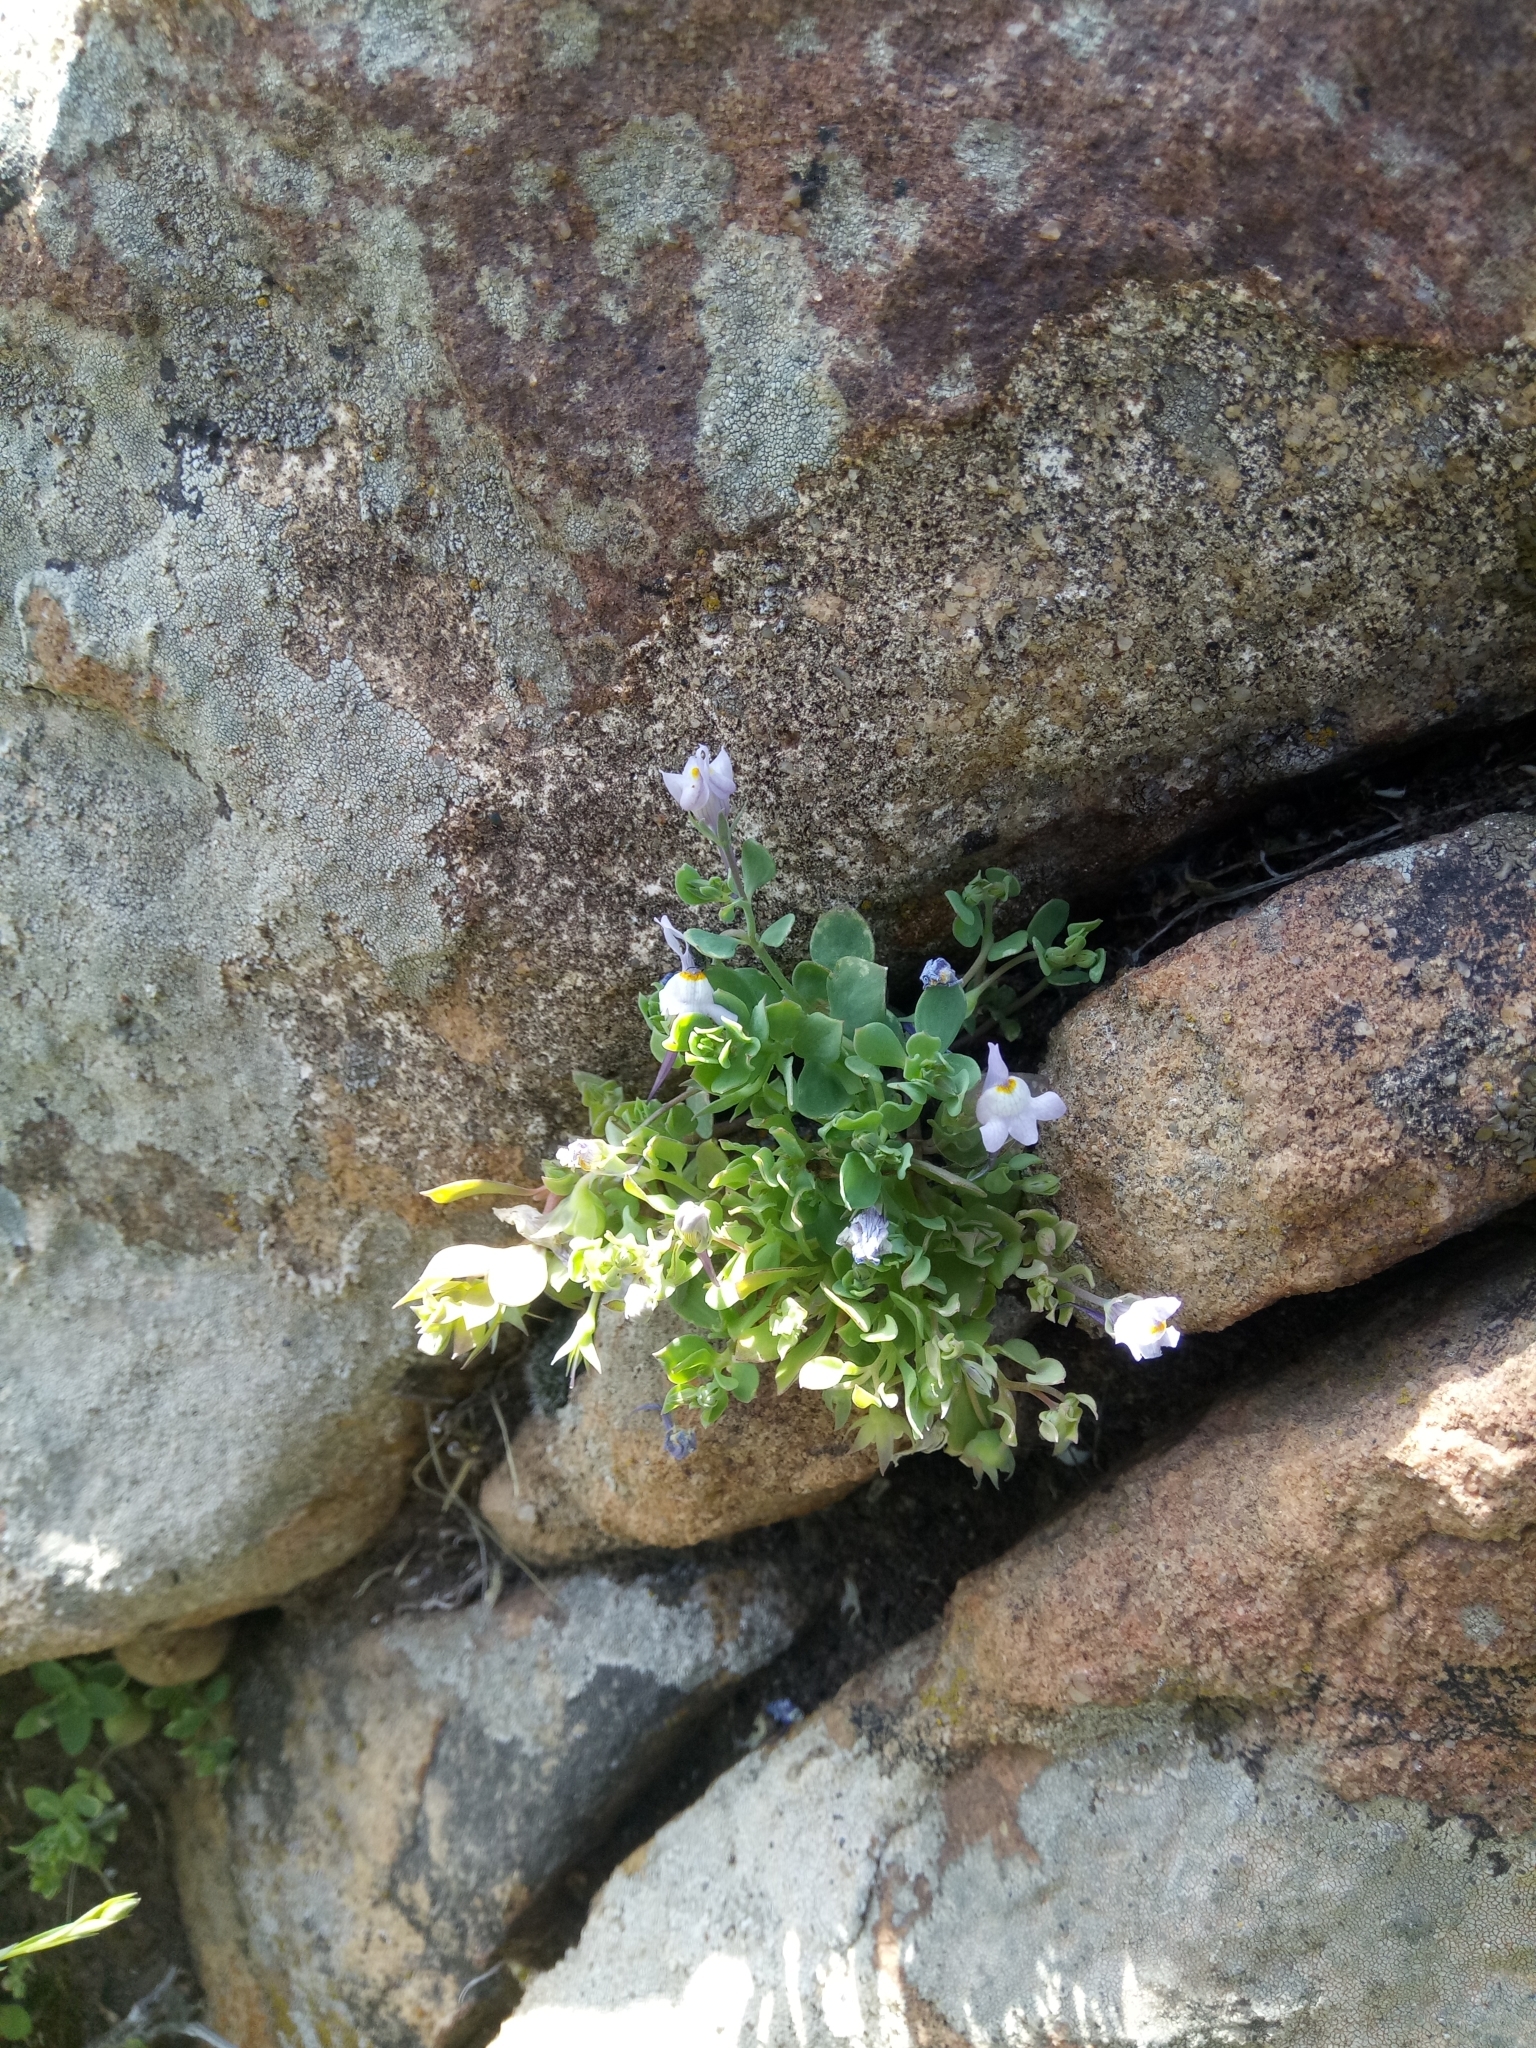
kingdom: Plantae
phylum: Tracheophyta
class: Magnoliopsida
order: Lamiales
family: Plantaginaceae
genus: Linaria
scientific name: Linaria reflexa
